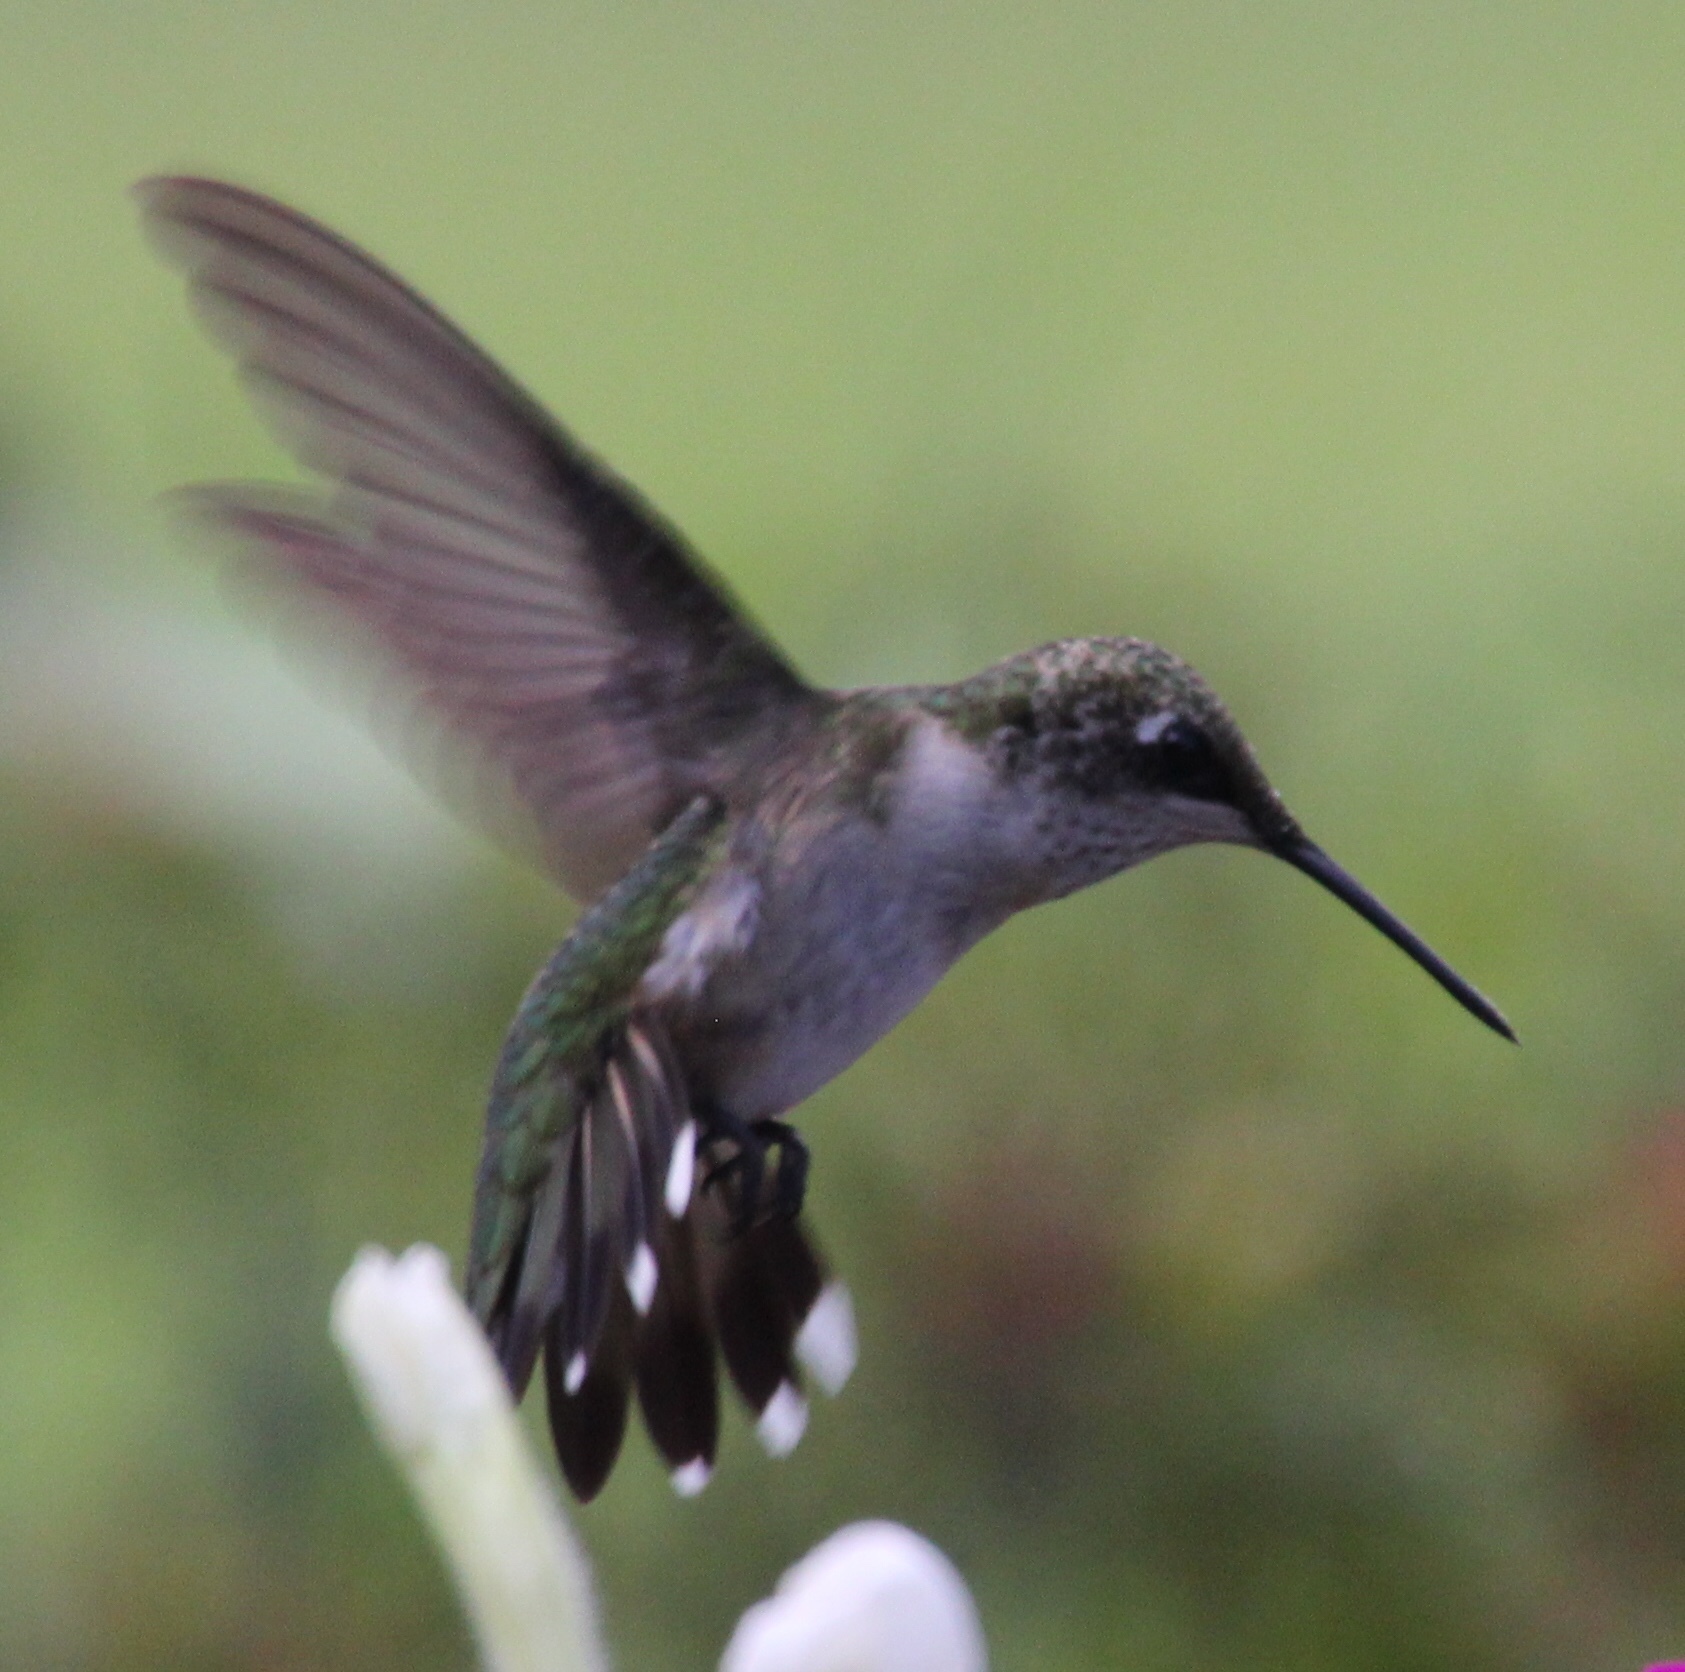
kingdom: Animalia
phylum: Chordata
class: Aves
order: Apodiformes
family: Trochilidae
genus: Archilochus
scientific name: Archilochus colubris
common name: Ruby-throated hummingbird
